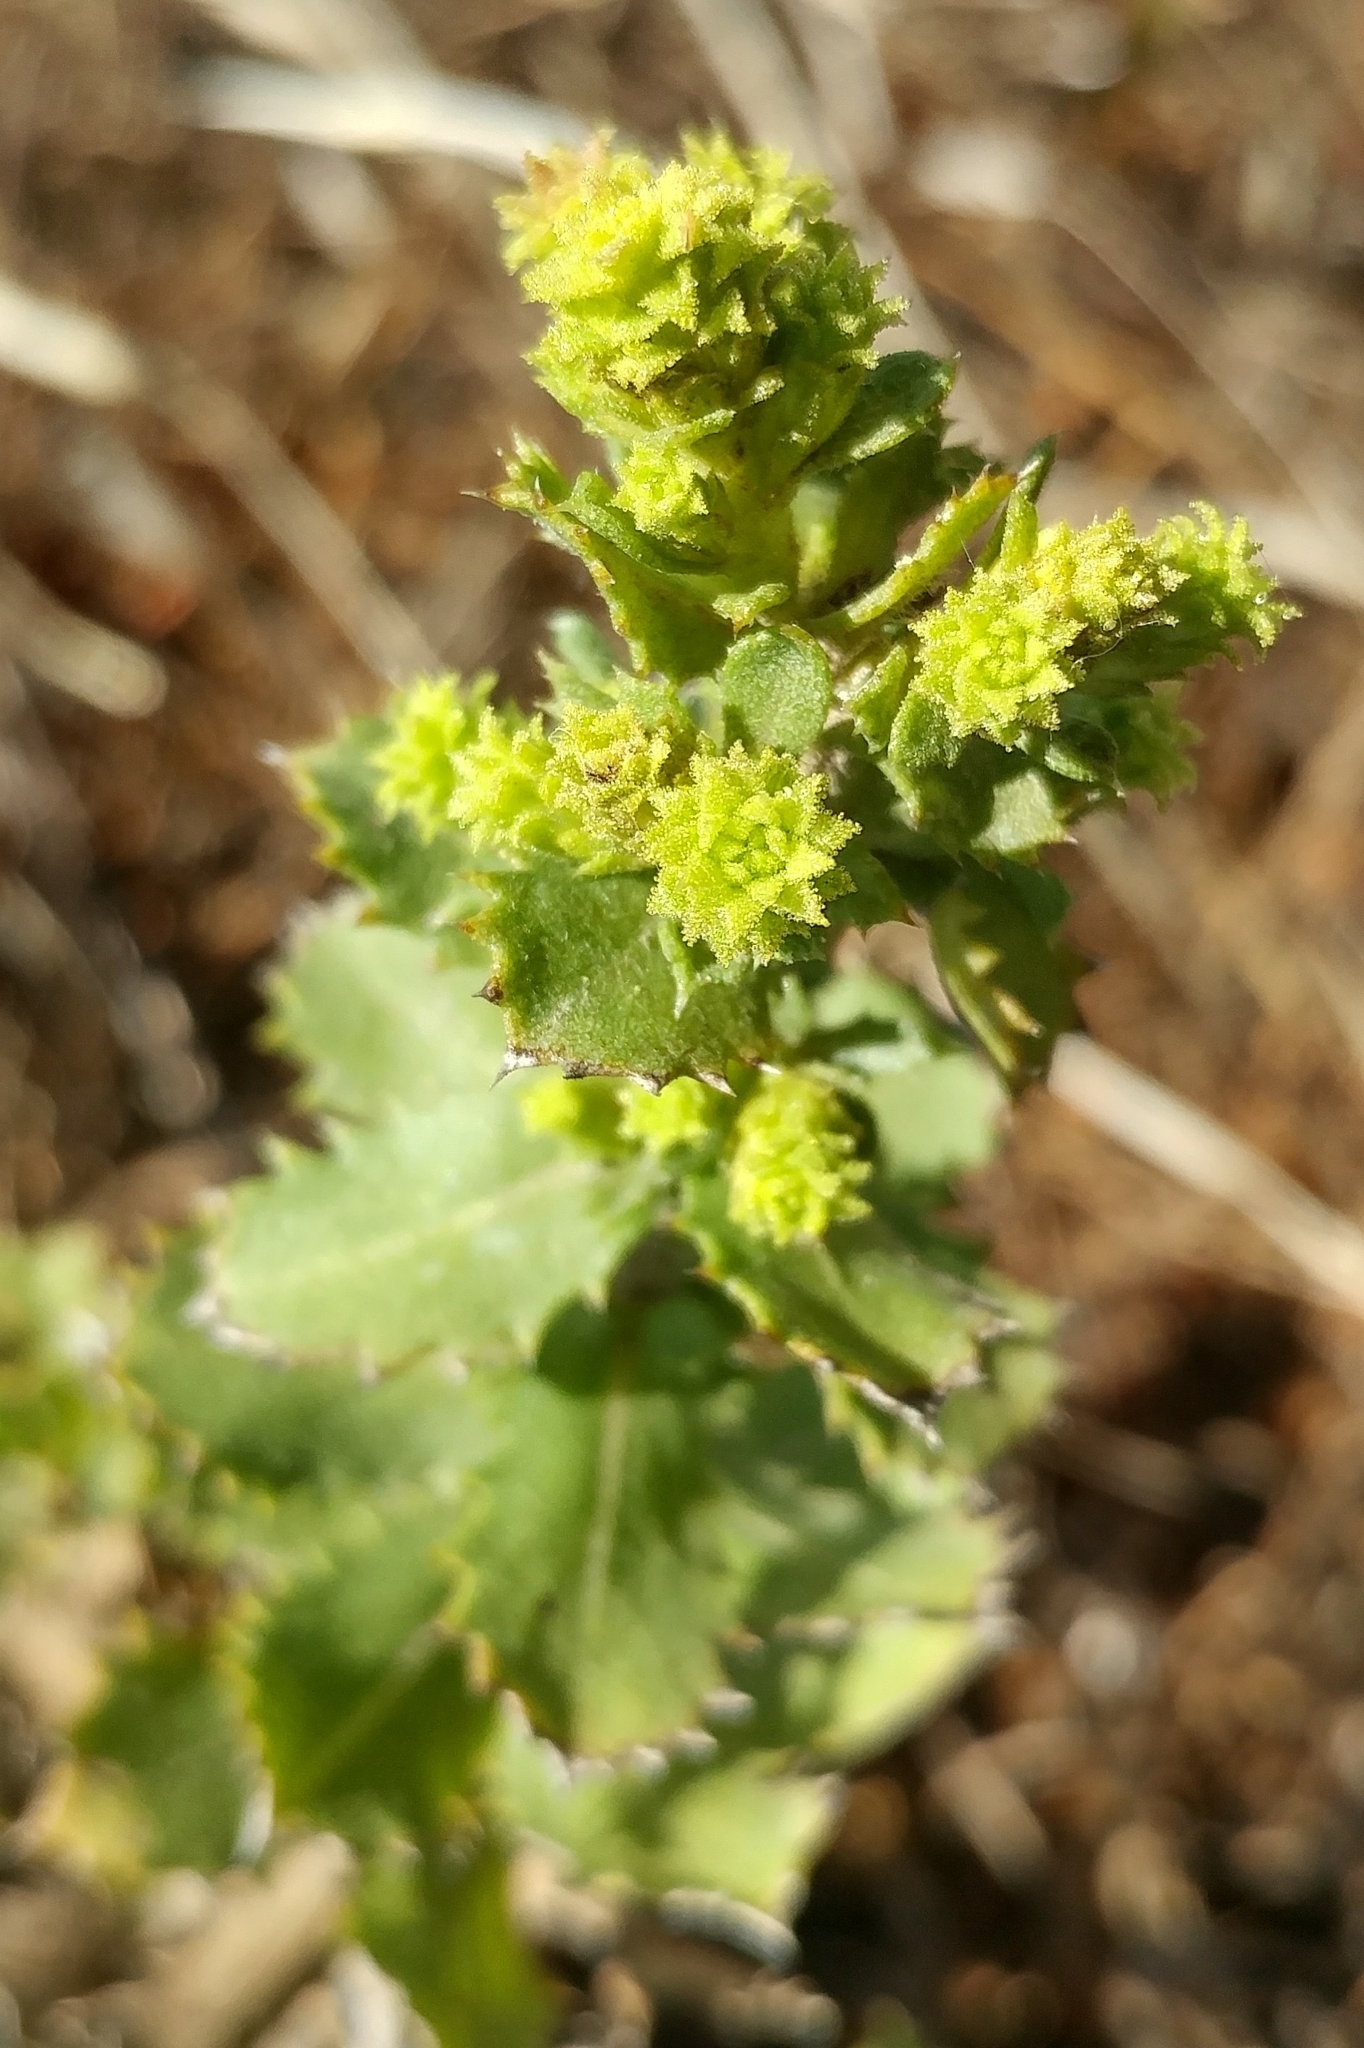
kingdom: Plantae
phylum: Tracheophyta
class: Magnoliopsida
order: Asterales
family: Asteraceae
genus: Hazardia
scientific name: Hazardia squarrosa
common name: Saw-tooth goldenbush
